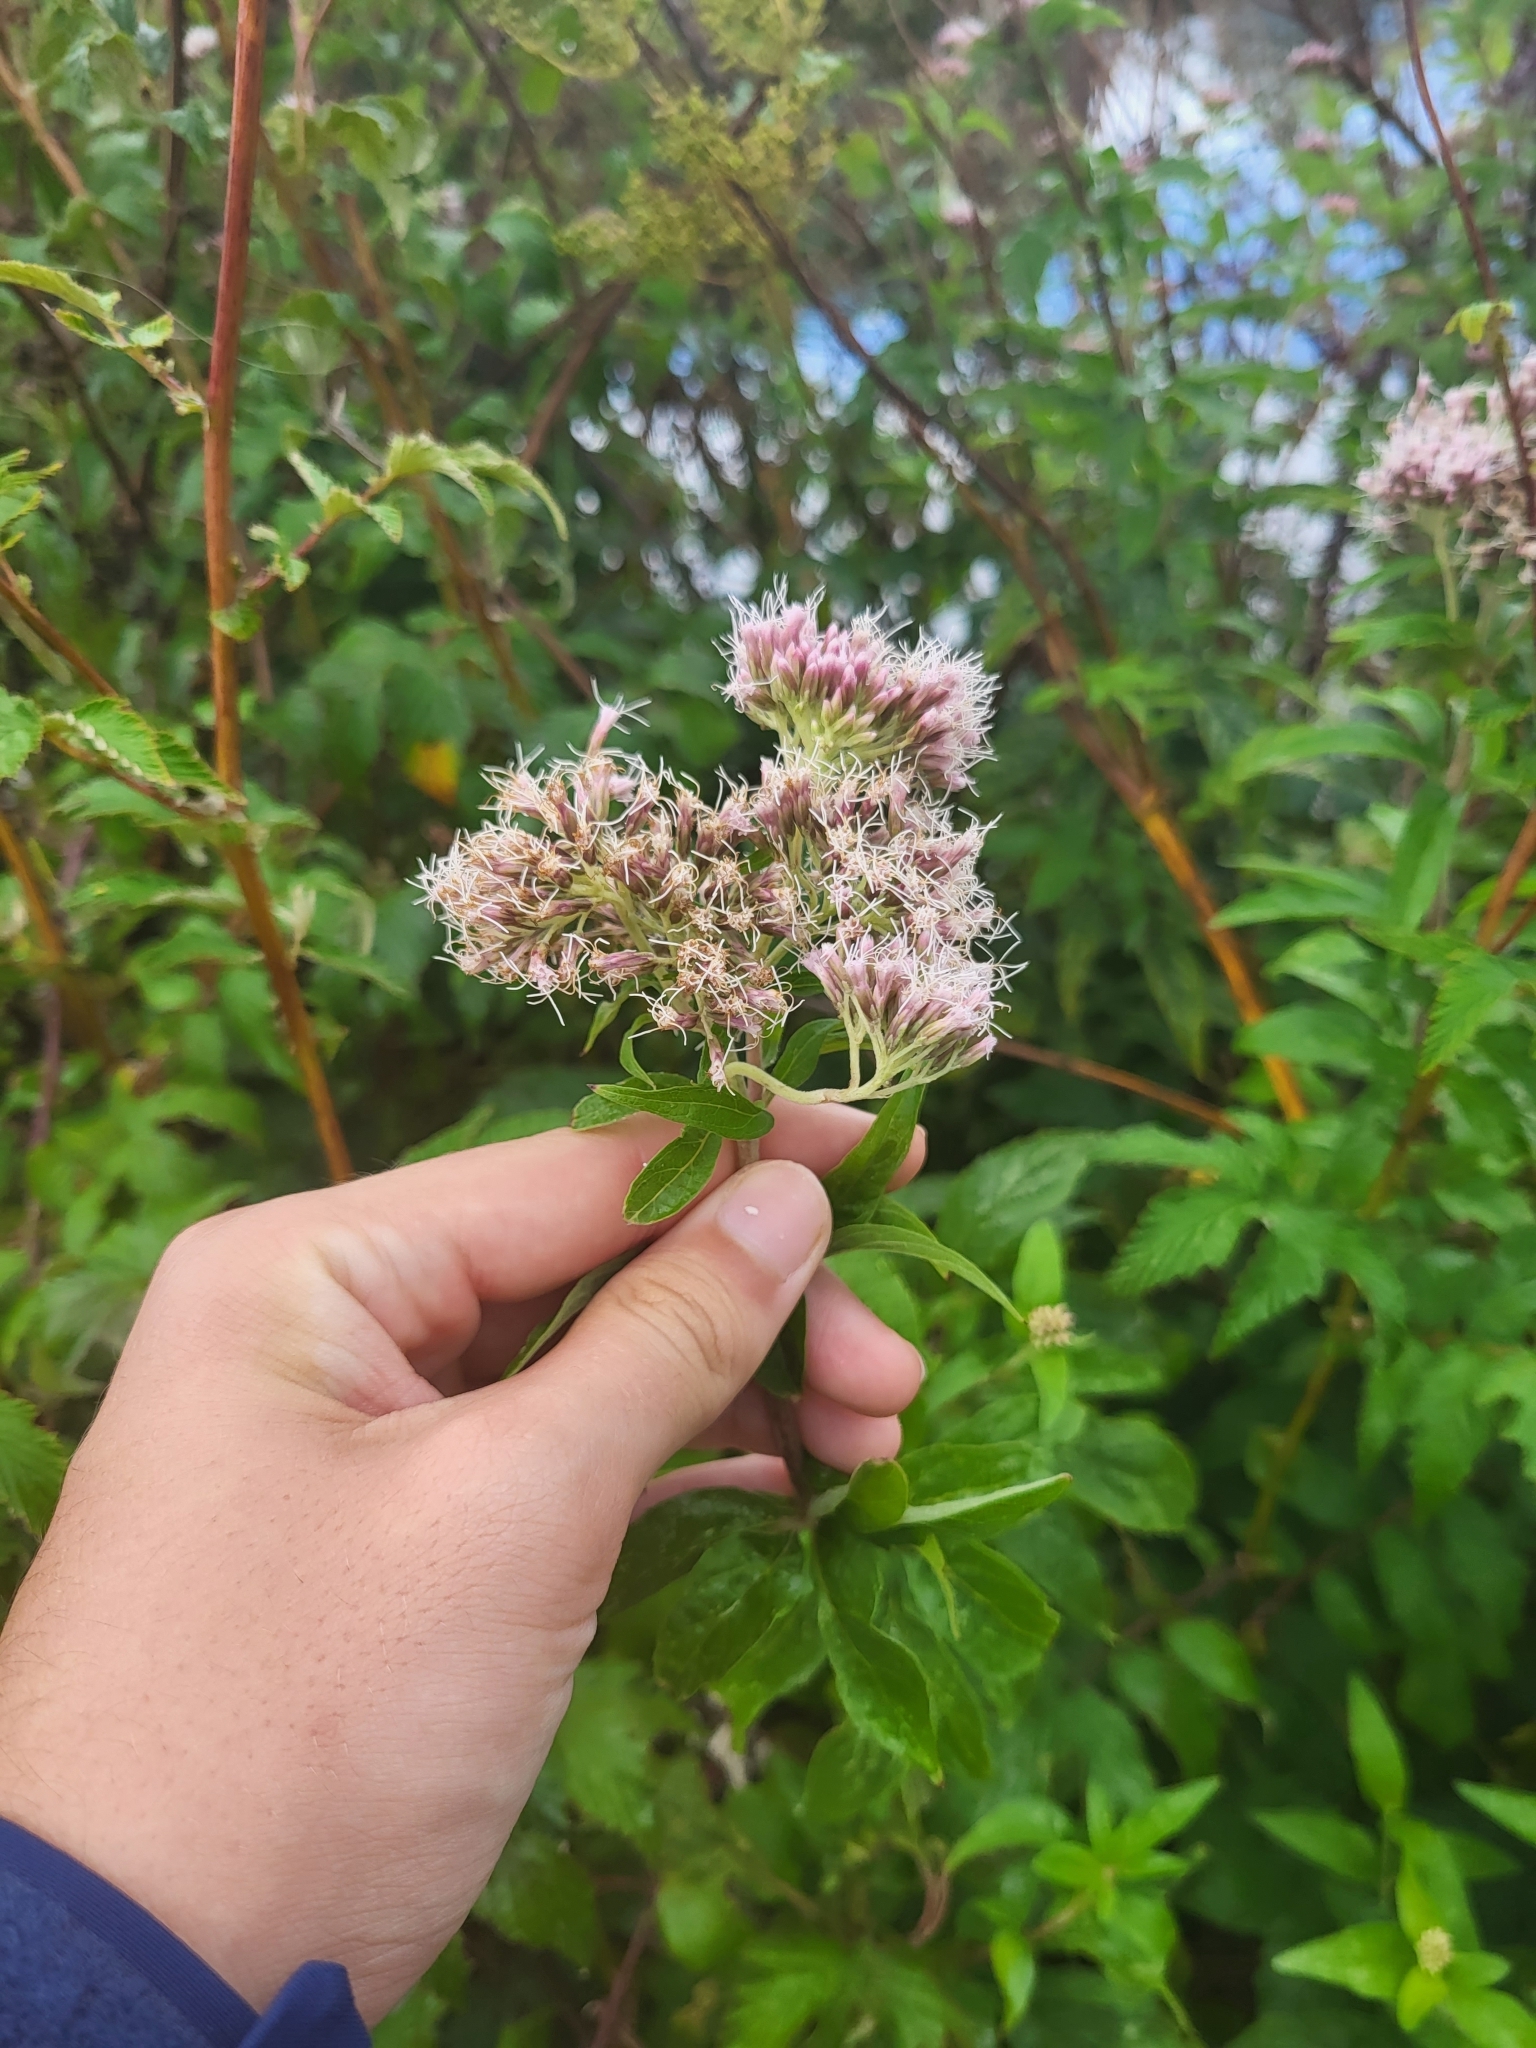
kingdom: Plantae
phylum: Tracheophyta
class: Magnoliopsida
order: Asterales
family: Asteraceae
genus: Eupatorium
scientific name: Eupatorium cannabinum
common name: Hemp-agrimony
